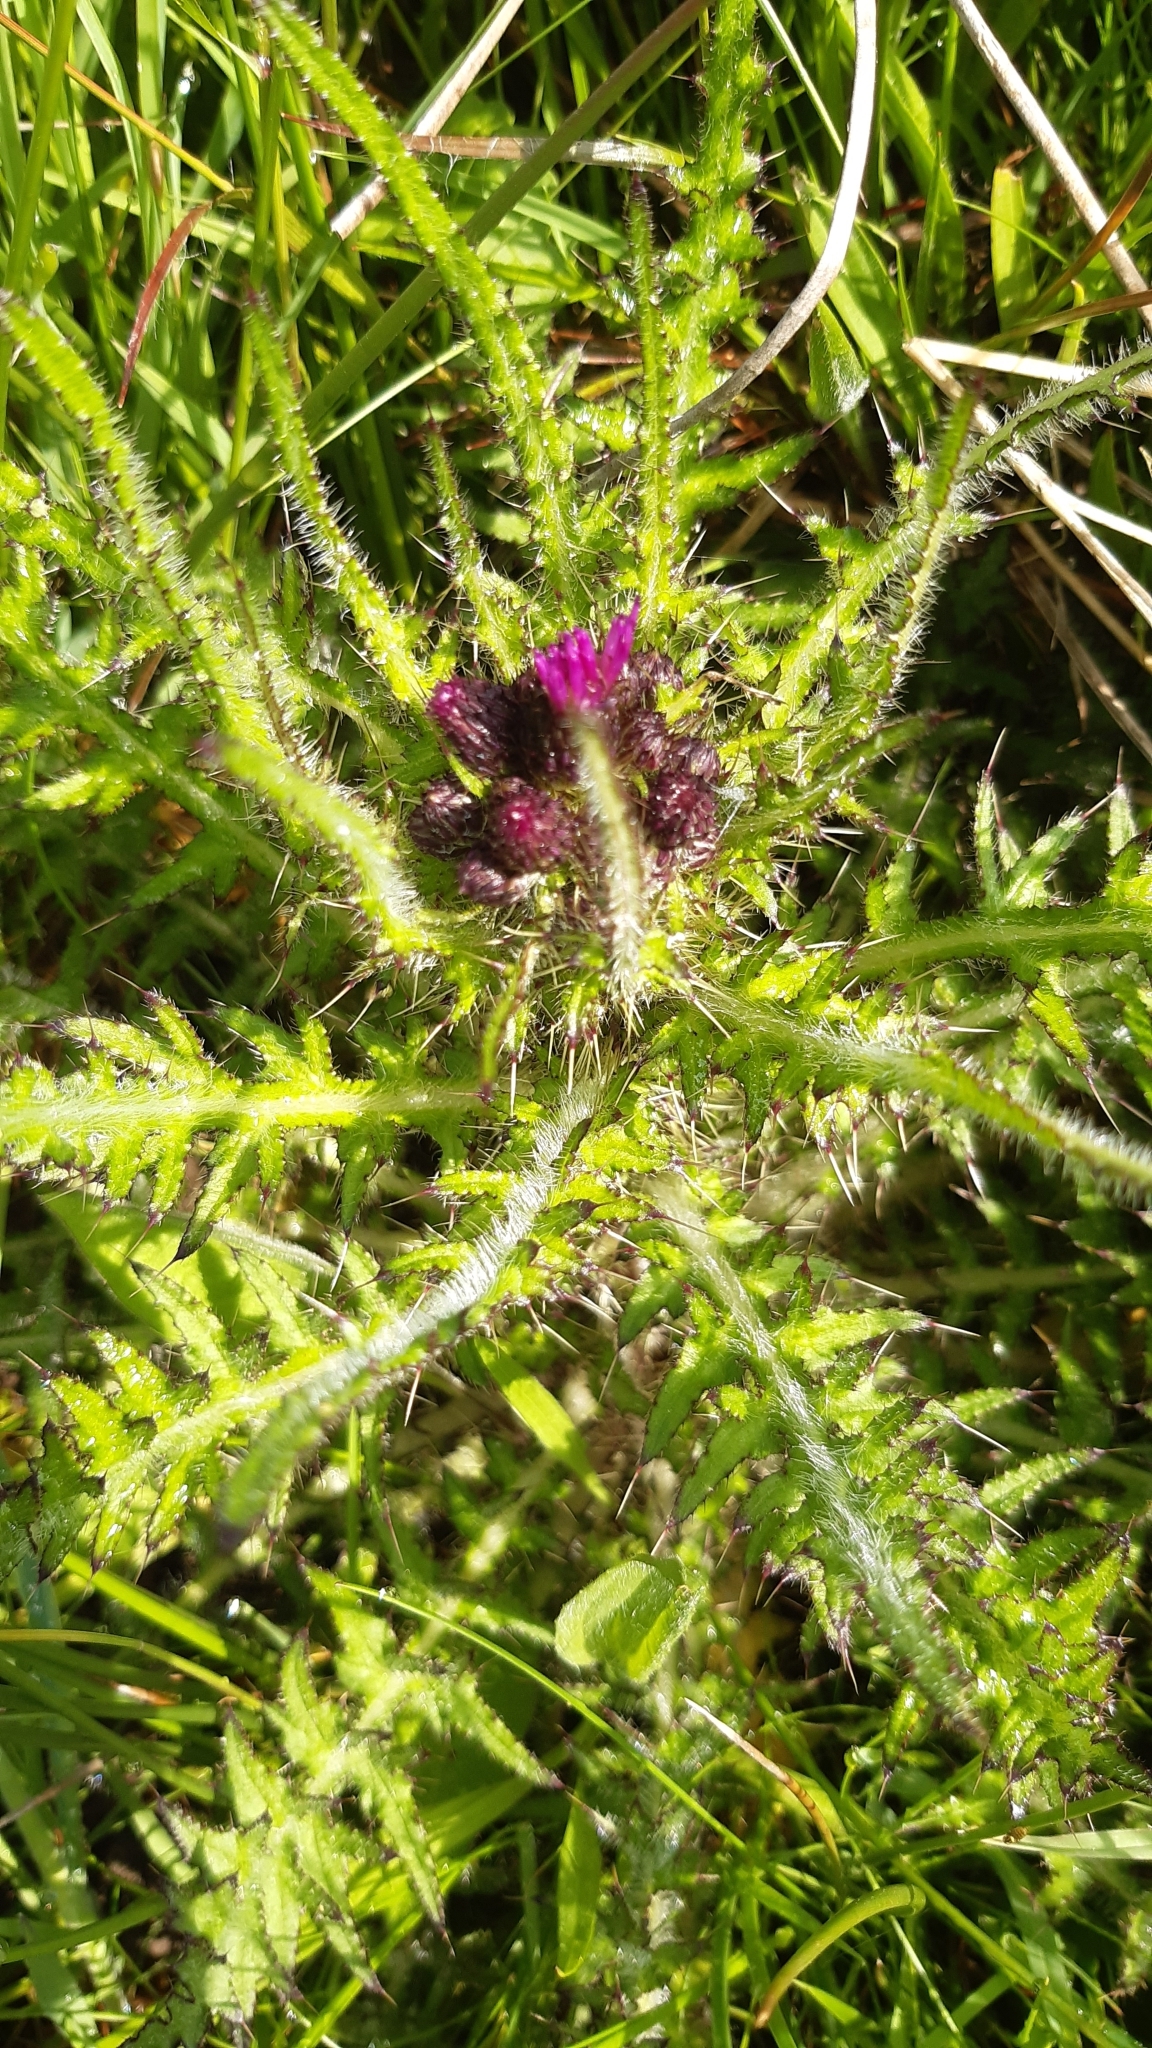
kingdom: Plantae
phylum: Tracheophyta
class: Magnoliopsida
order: Asterales
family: Asteraceae
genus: Cirsium
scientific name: Cirsium palustre
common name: Marsh thistle
